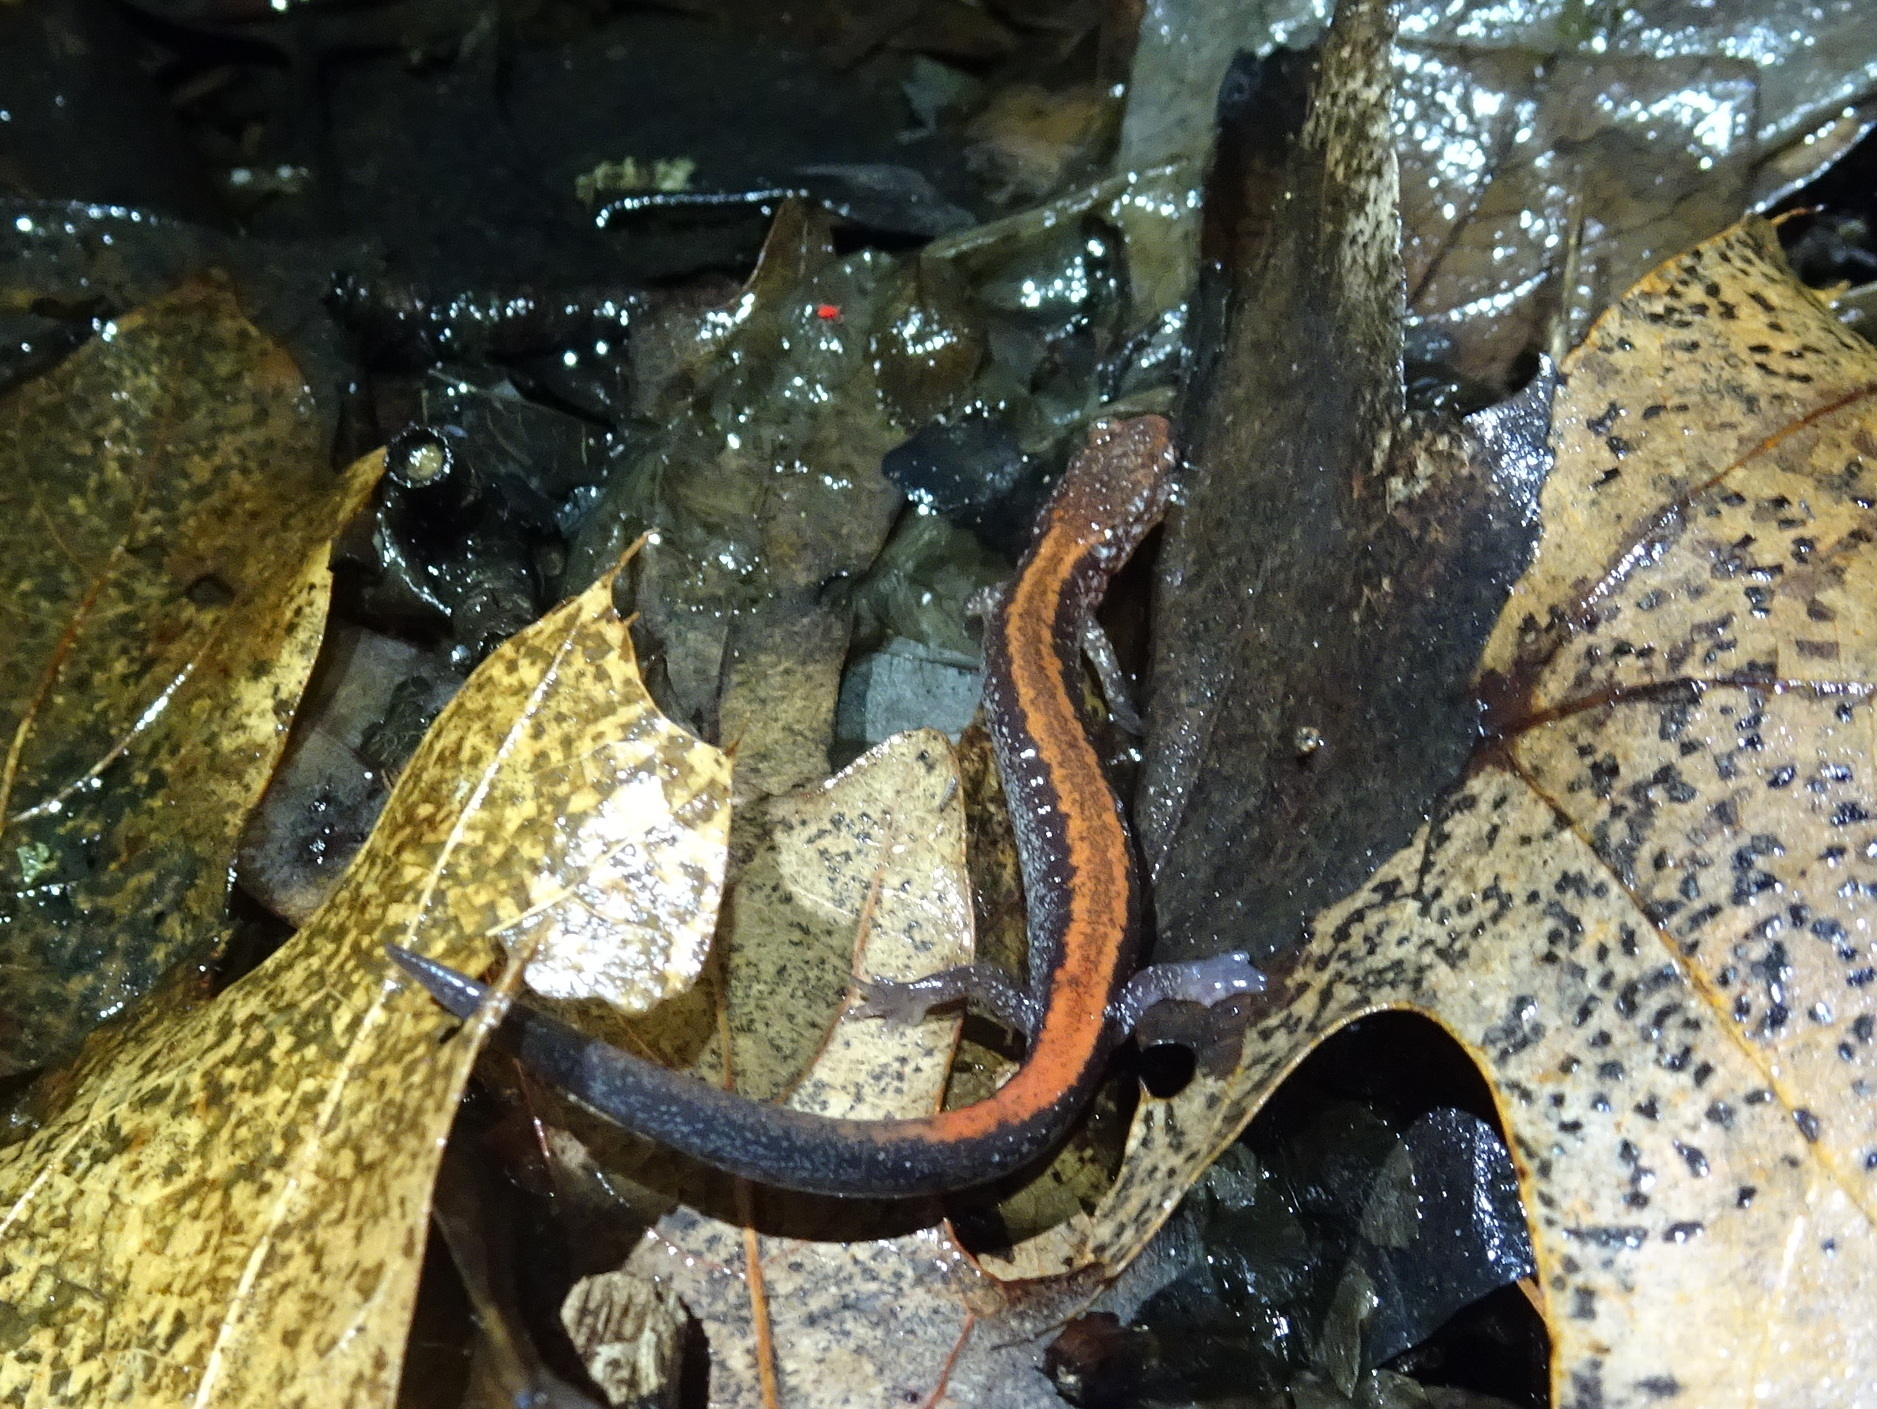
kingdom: Animalia
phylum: Chordata
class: Amphibia
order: Caudata
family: Plethodontidae
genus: Plethodon
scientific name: Plethodon cinereus
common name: Redback salamander
